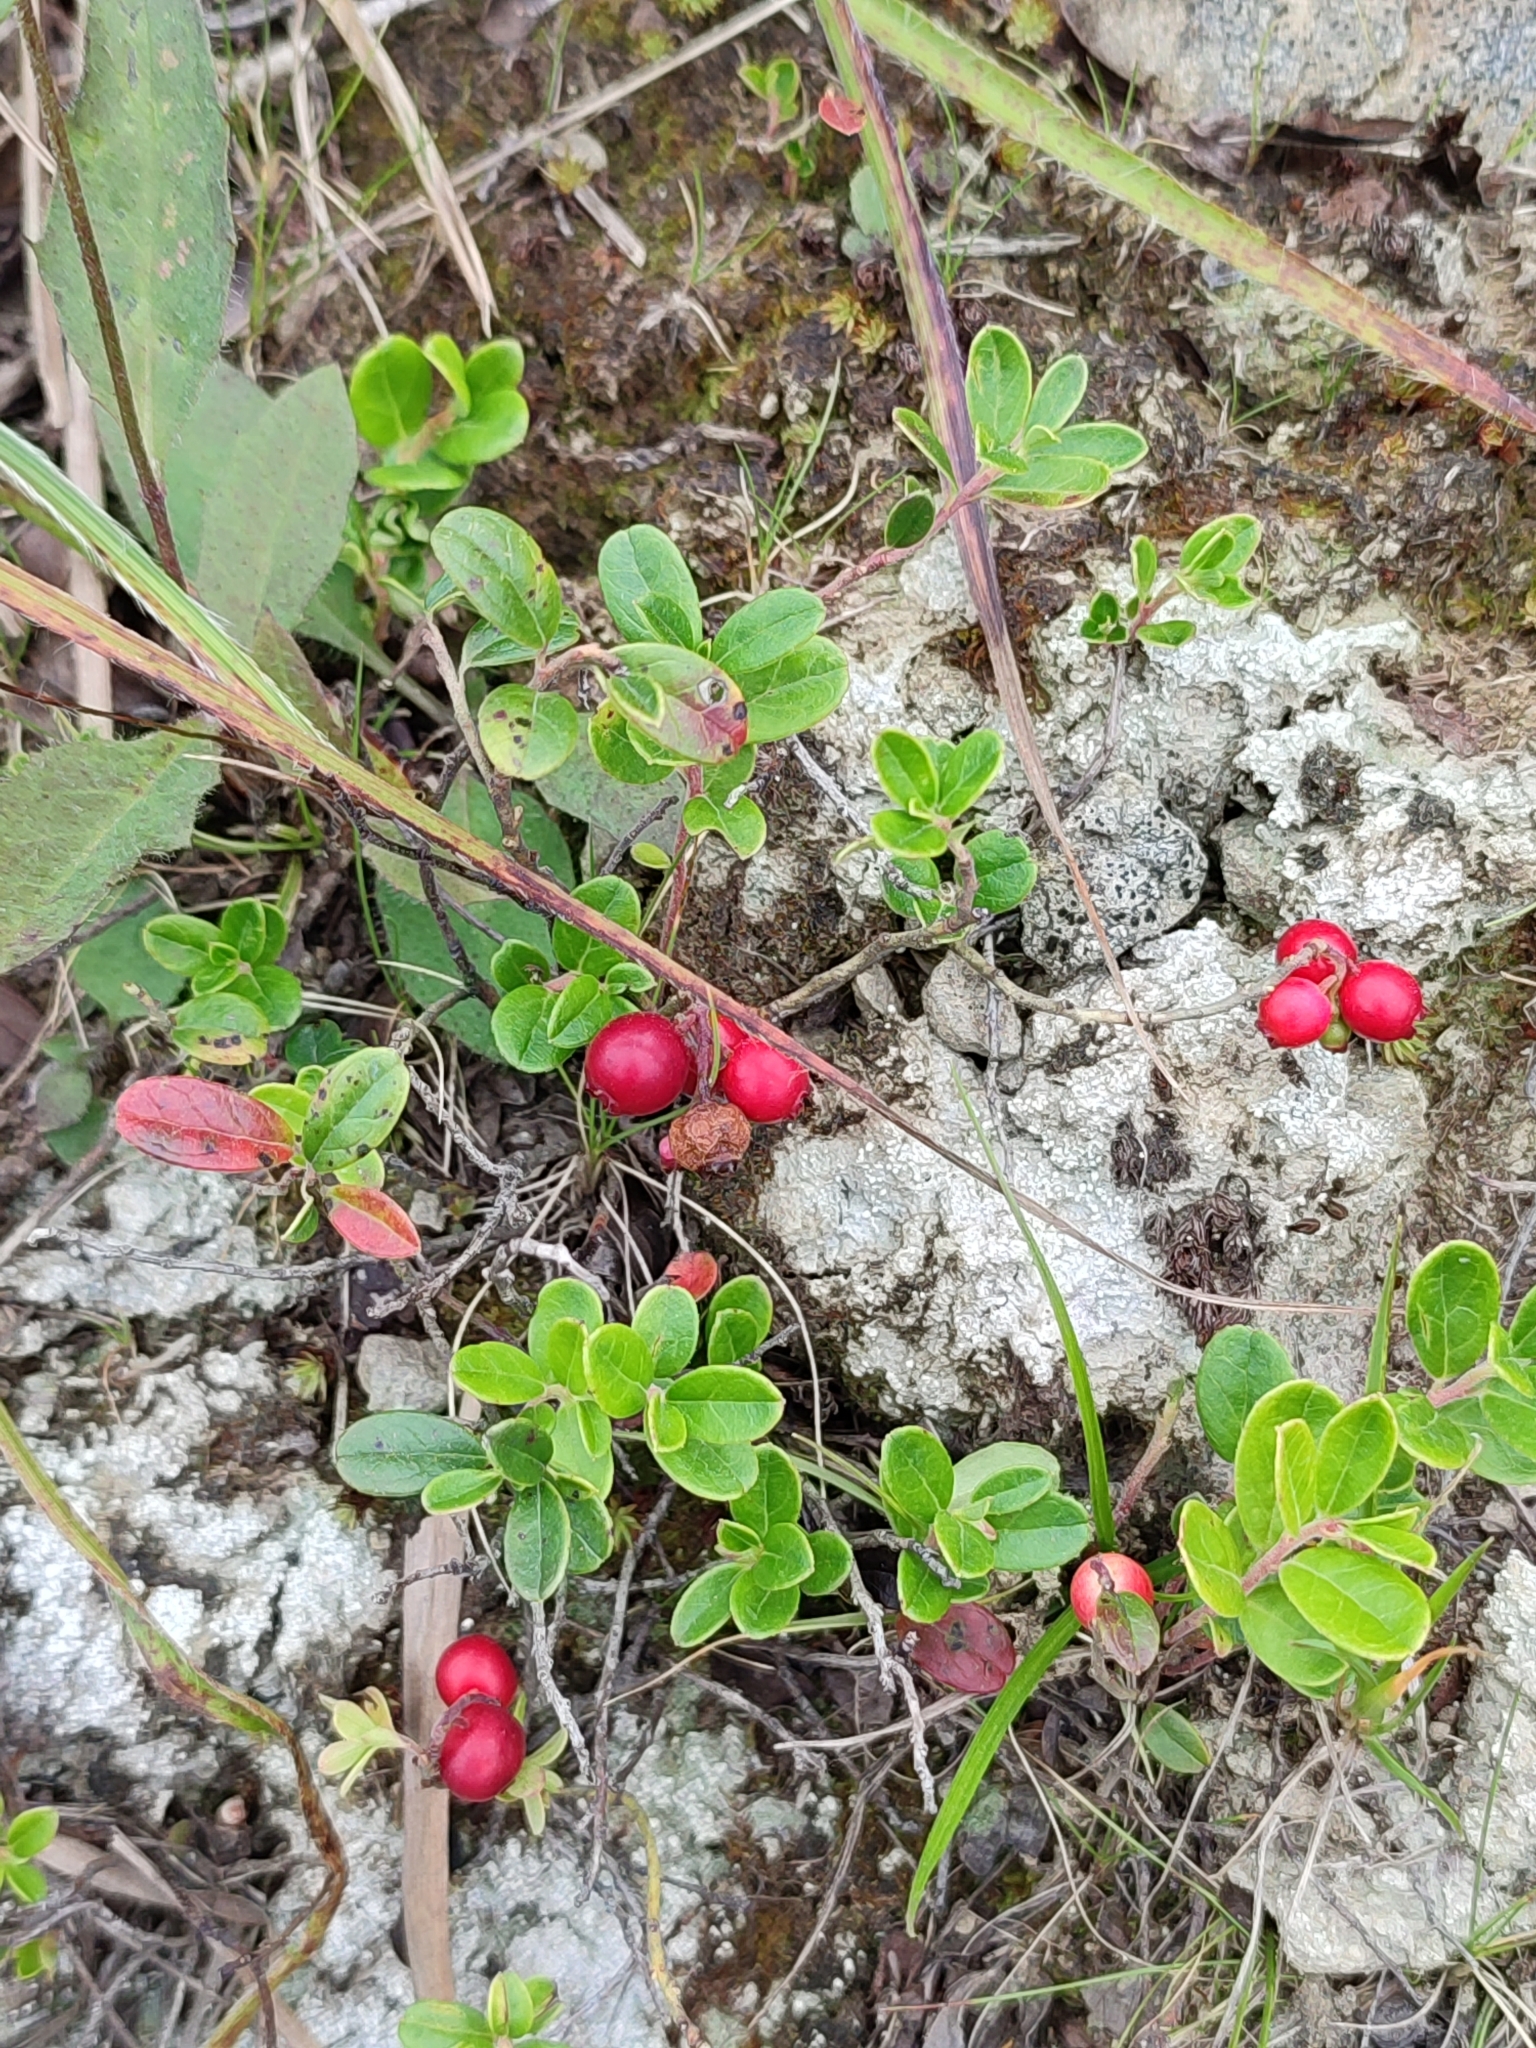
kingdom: Plantae
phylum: Tracheophyta
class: Magnoliopsida
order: Ericales
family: Ericaceae
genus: Vaccinium
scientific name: Vaccinium vitis-idaea
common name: Cowberry
